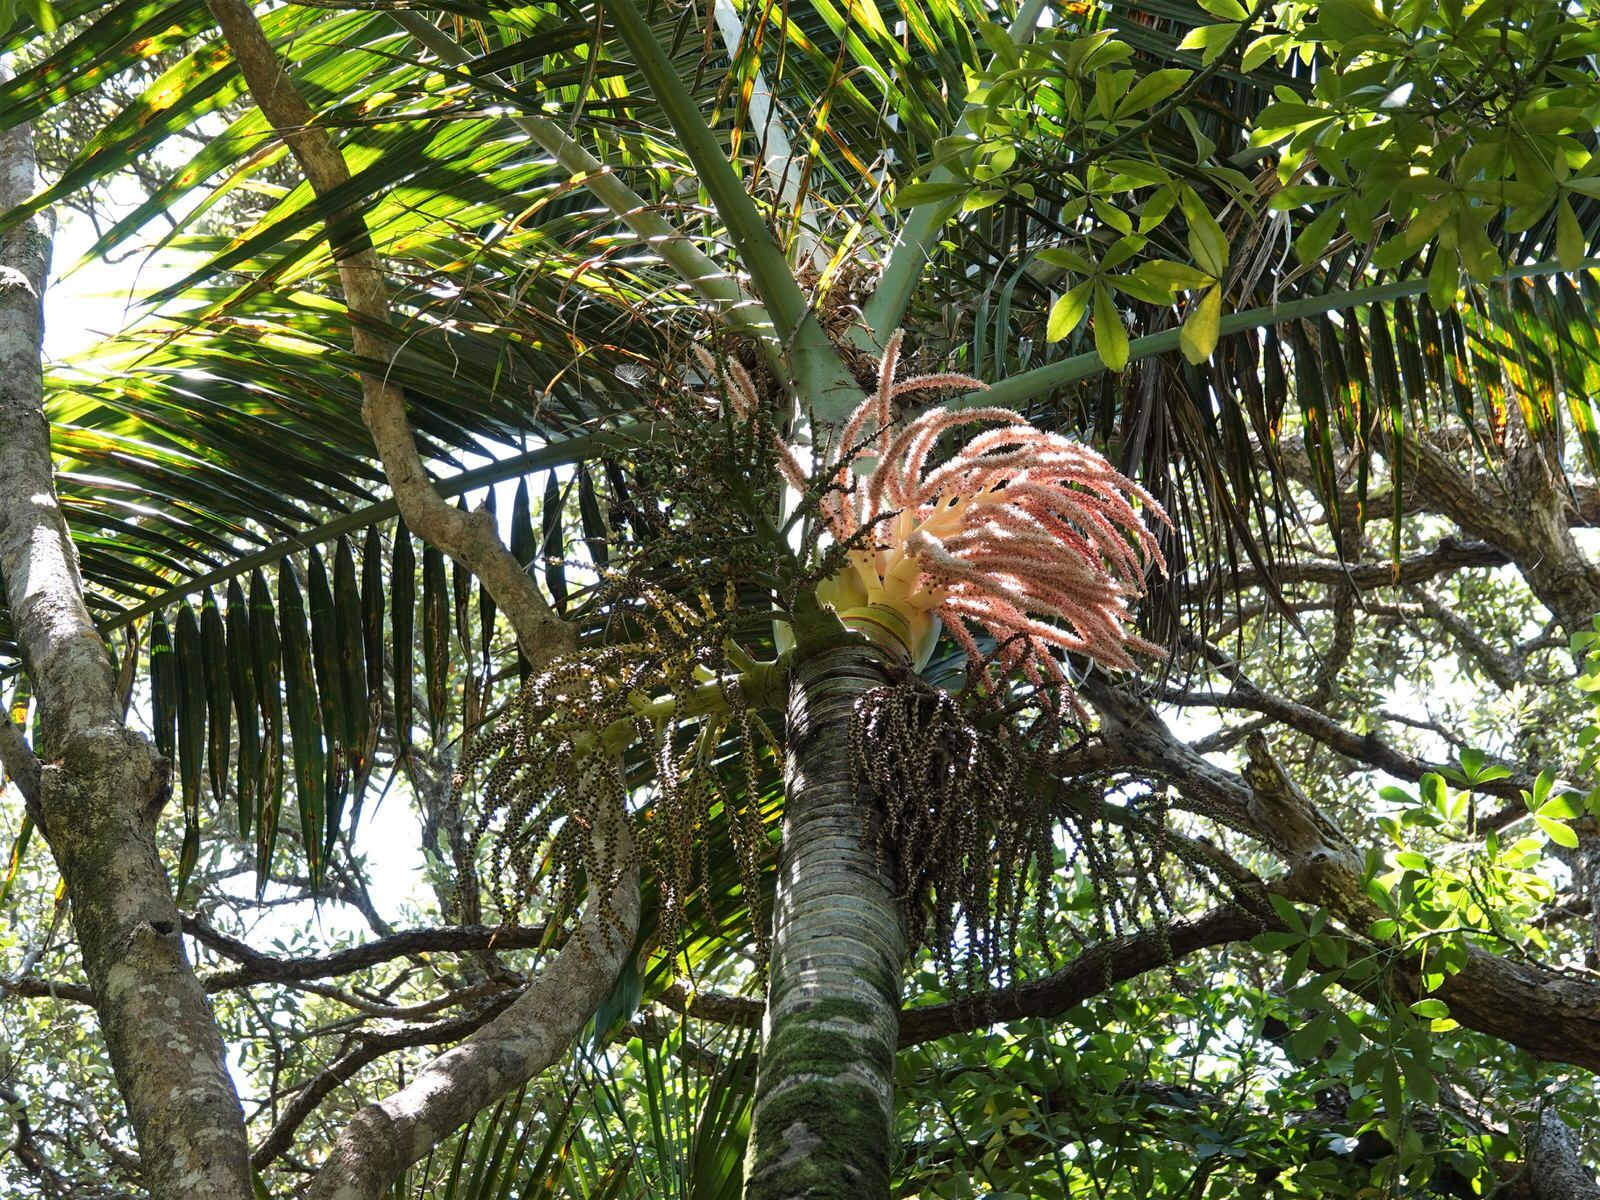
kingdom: Plantae
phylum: Tracheophyta
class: Liliopsida
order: Arecales
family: Arecaceae
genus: Rhopalostylis
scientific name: Rhopalostylis sapida
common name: Feather-duster palm
